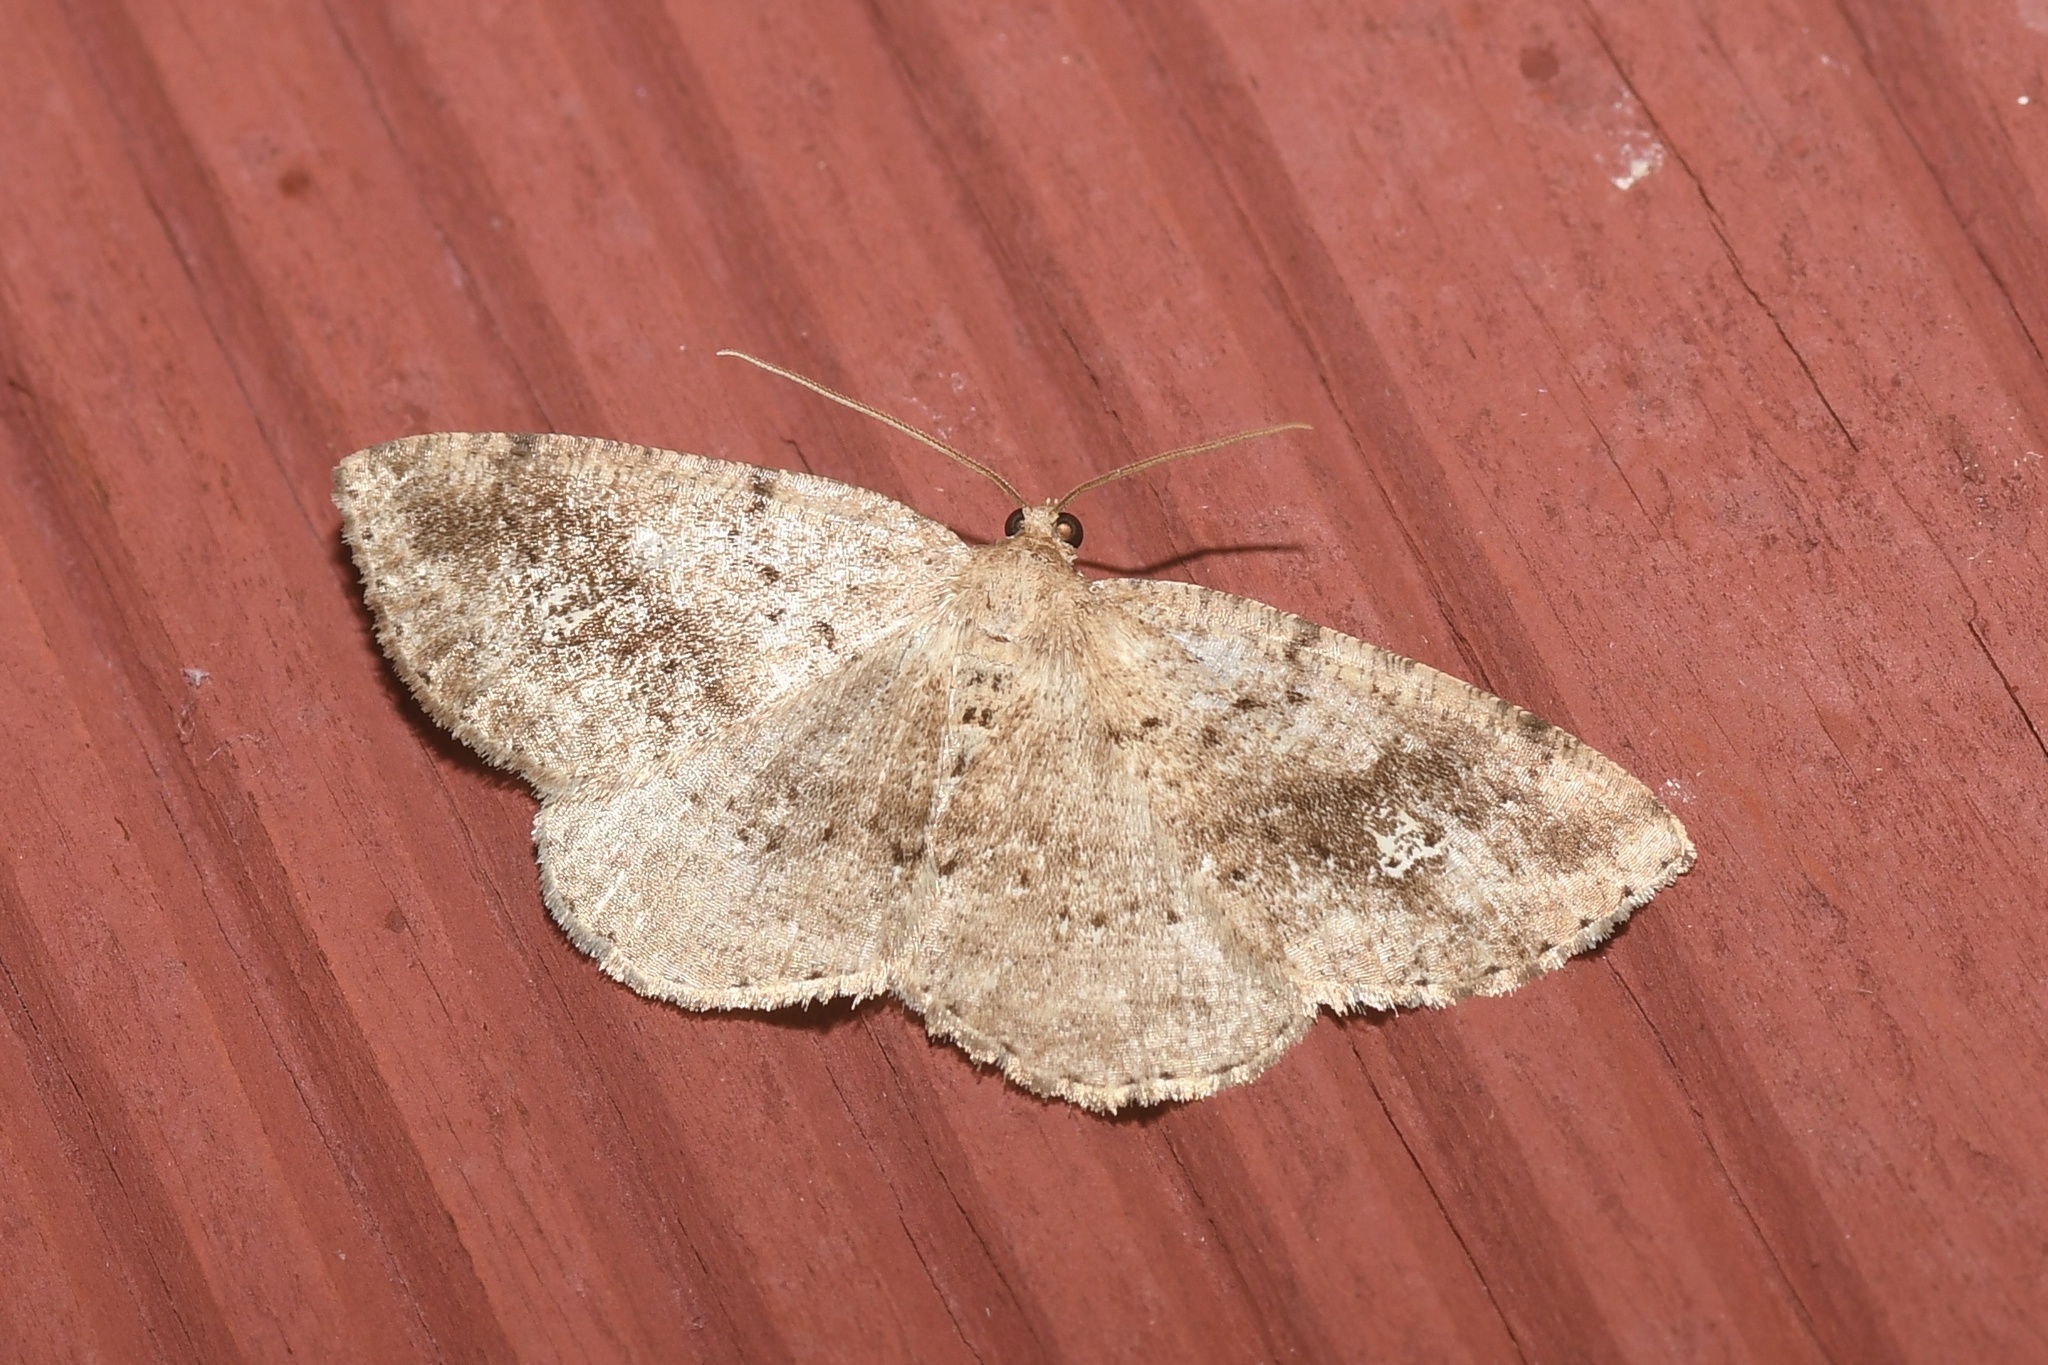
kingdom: Animalia
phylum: Arthropoda
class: Insecta
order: Lepidoptera
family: Geometridae
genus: Homochlodes
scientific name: Homochlodes fritillaria
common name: Pale homochlodes
